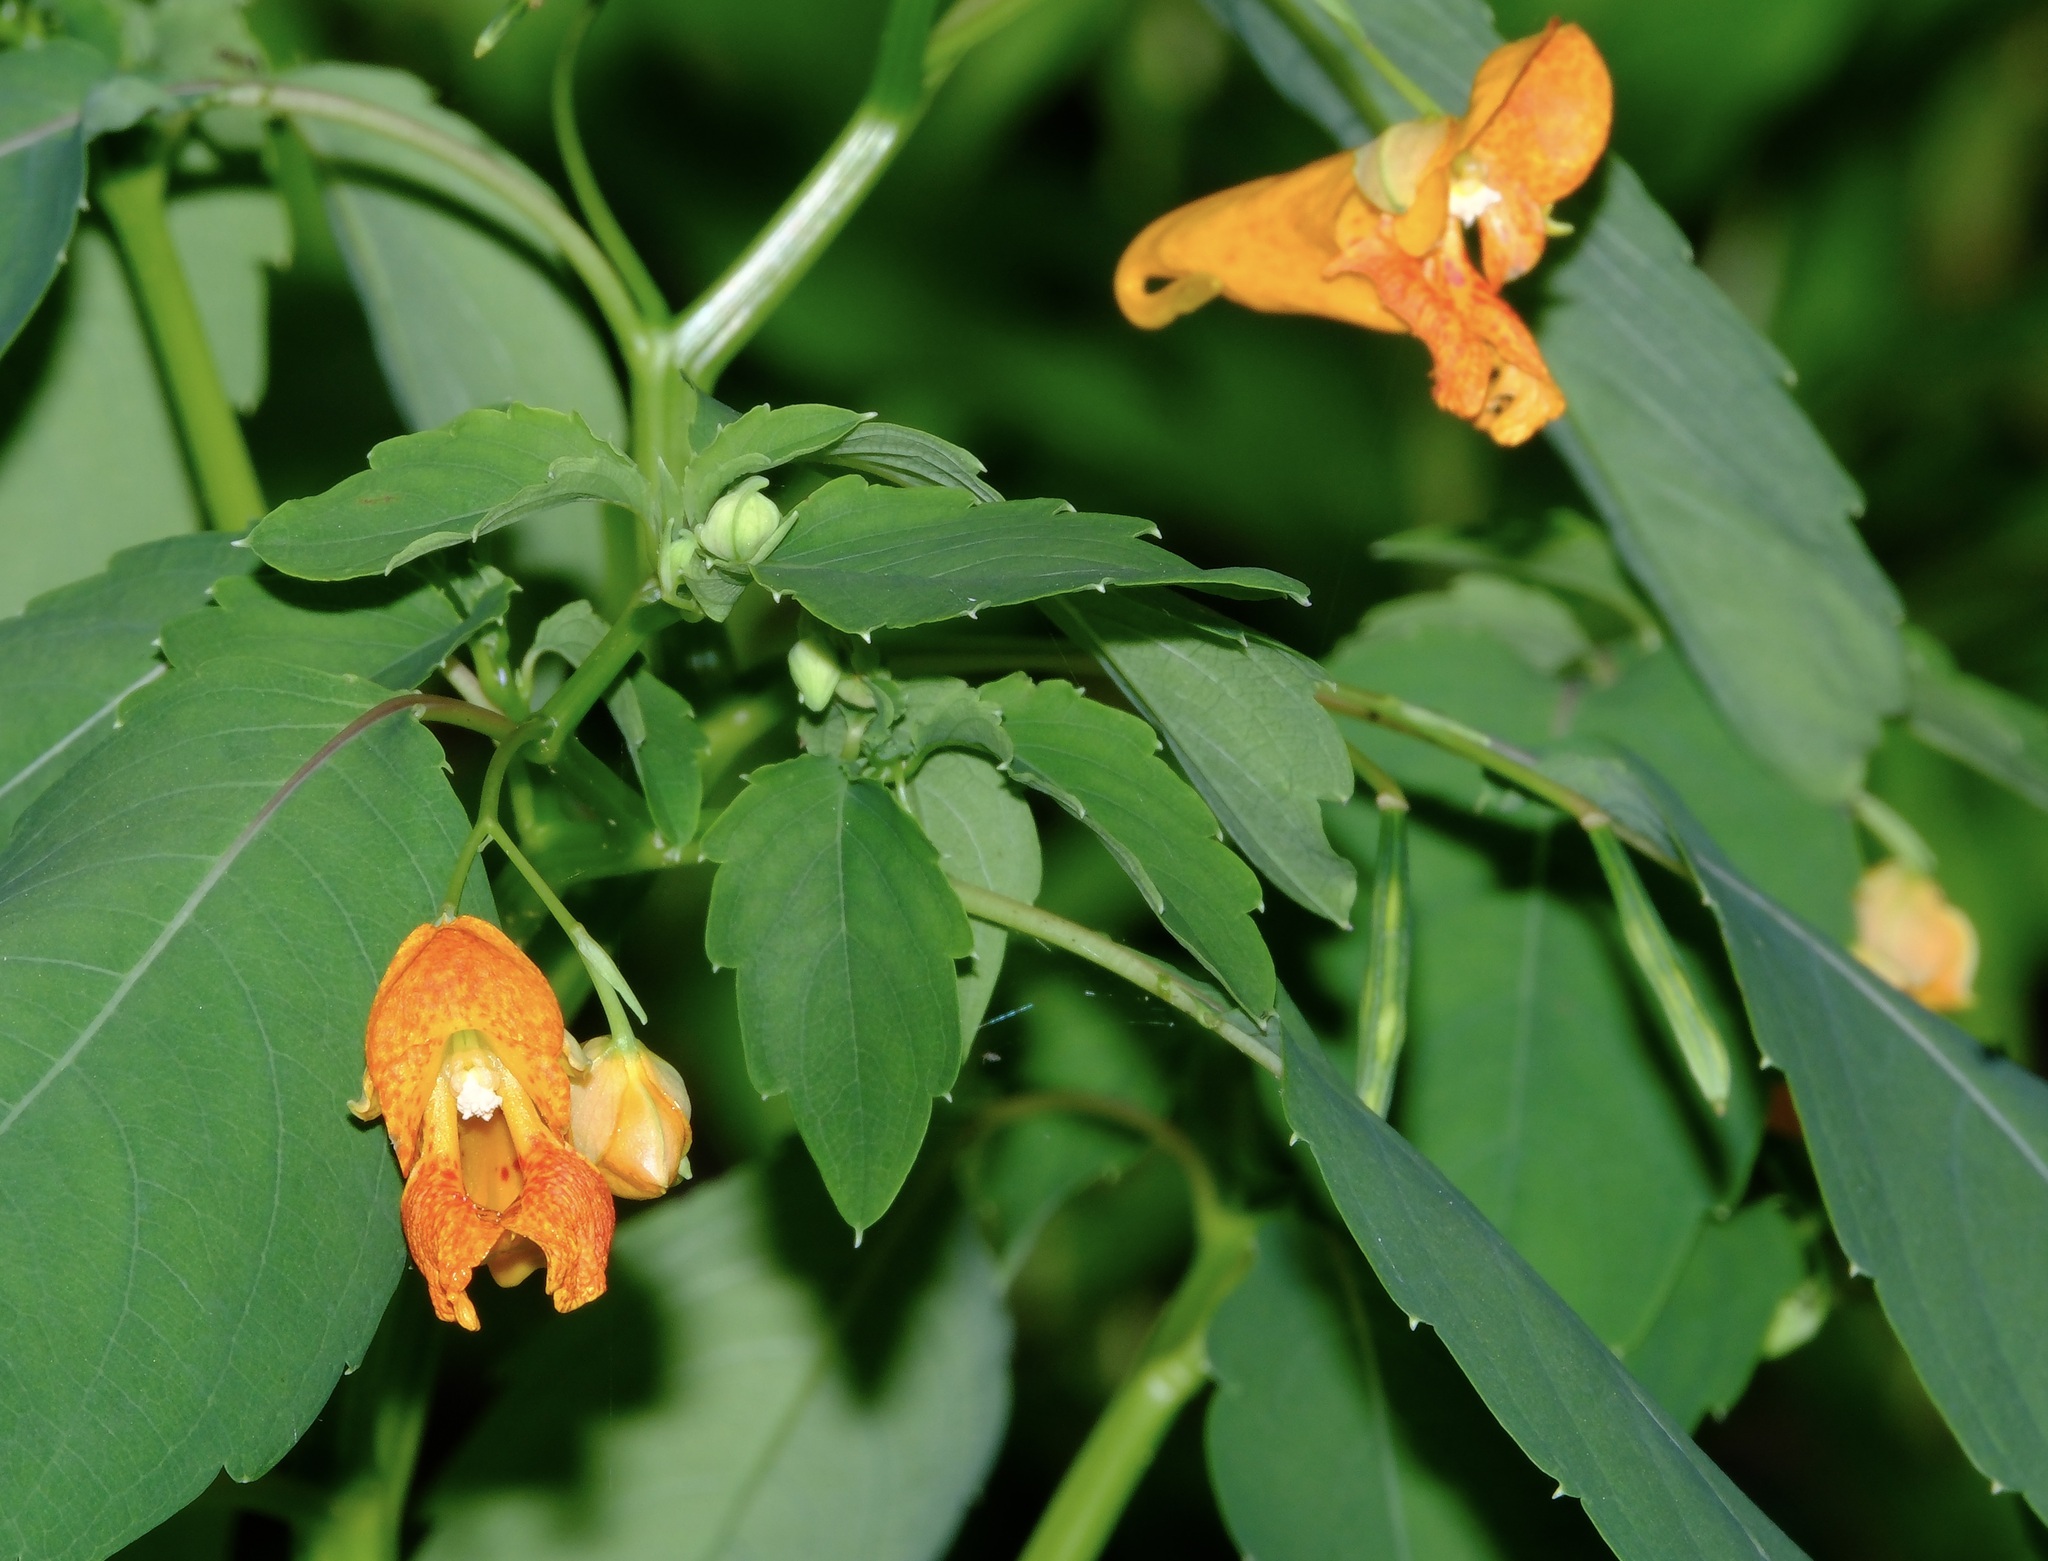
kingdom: Plantae
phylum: Tracheophyta
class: Magnoliopsida
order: Ericales
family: Balsaminaceae
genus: Impatiens
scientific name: Impatiens capensis
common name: Orange balsam
